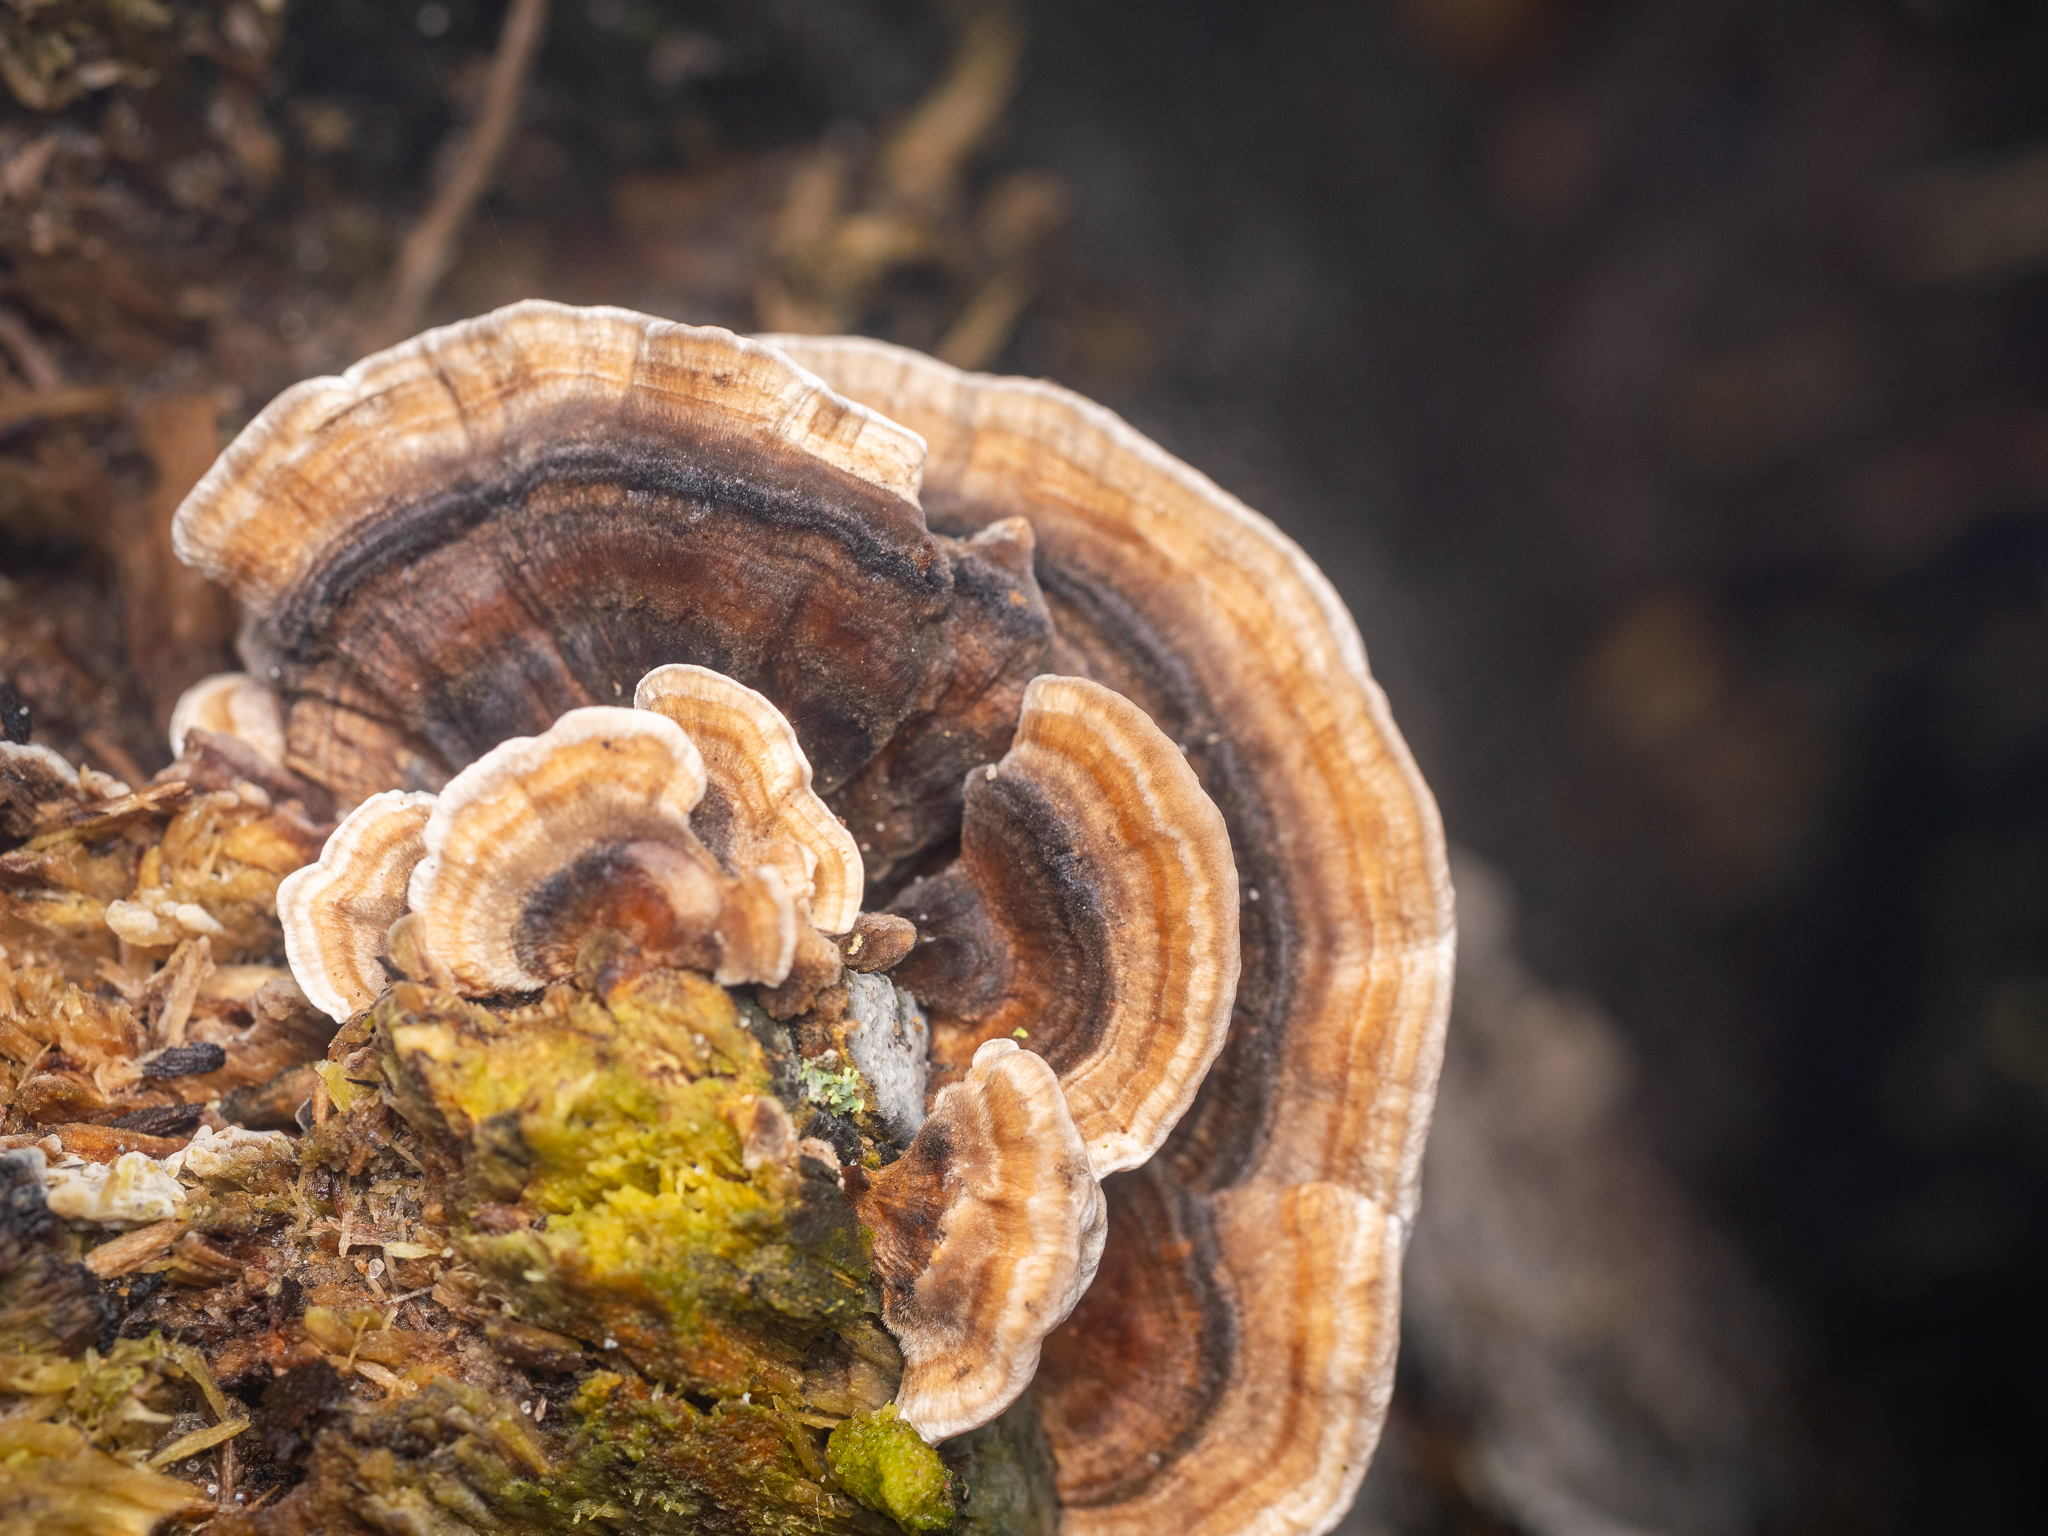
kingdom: Fungi
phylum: Basidiomycota
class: Agaricomycetes
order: Polyporales
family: Polyporaceae
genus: Trametes
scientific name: Trametes versicolor
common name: Turkeytail
